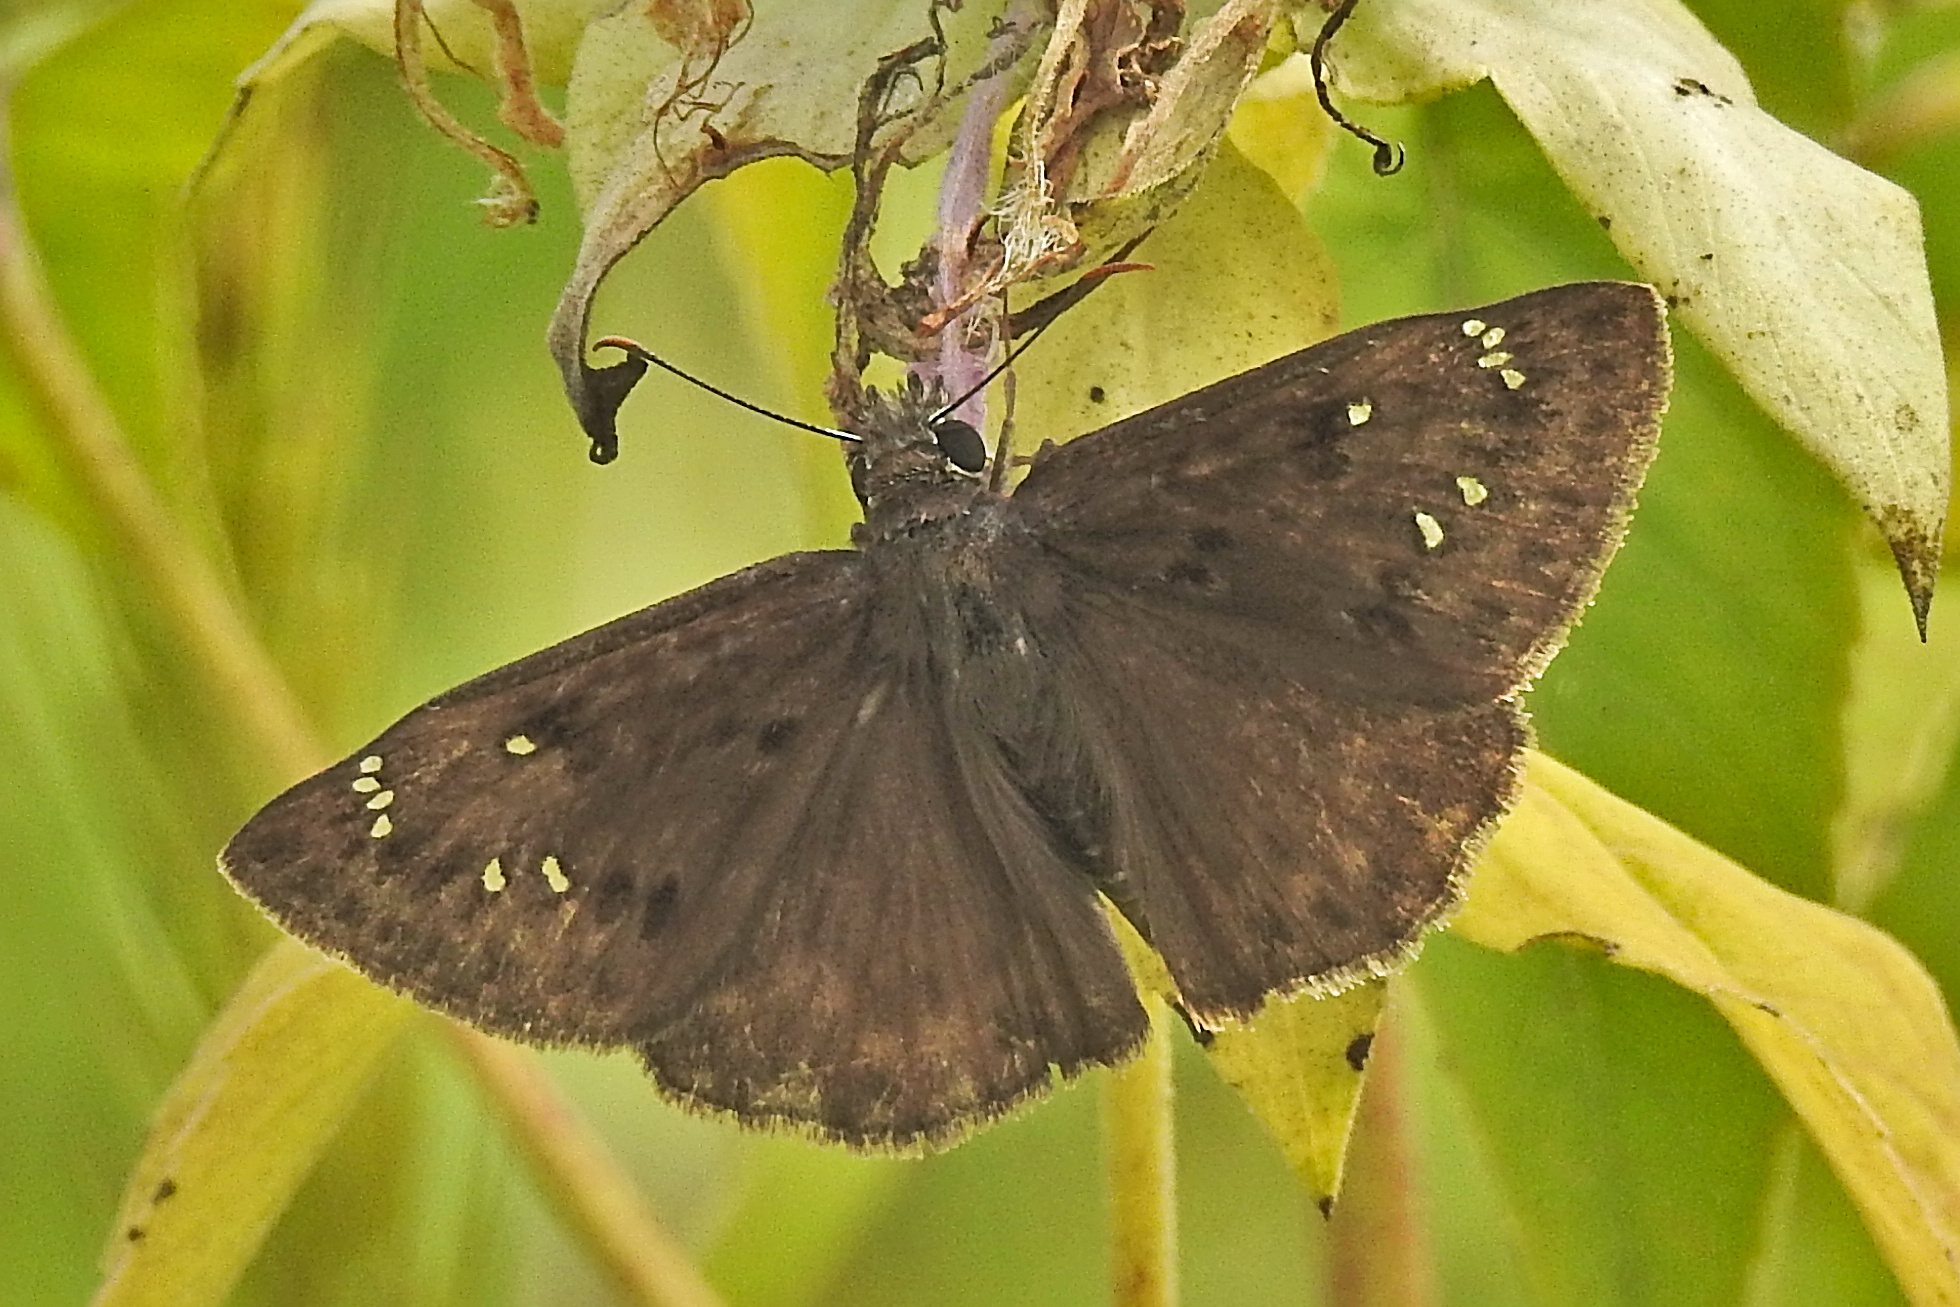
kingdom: Animalia
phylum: Arthropoda
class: Insecta
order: Lepidoptera
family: Hesperiidae
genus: Erynnis
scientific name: Erynnis horatius
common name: Horace's duskywing
